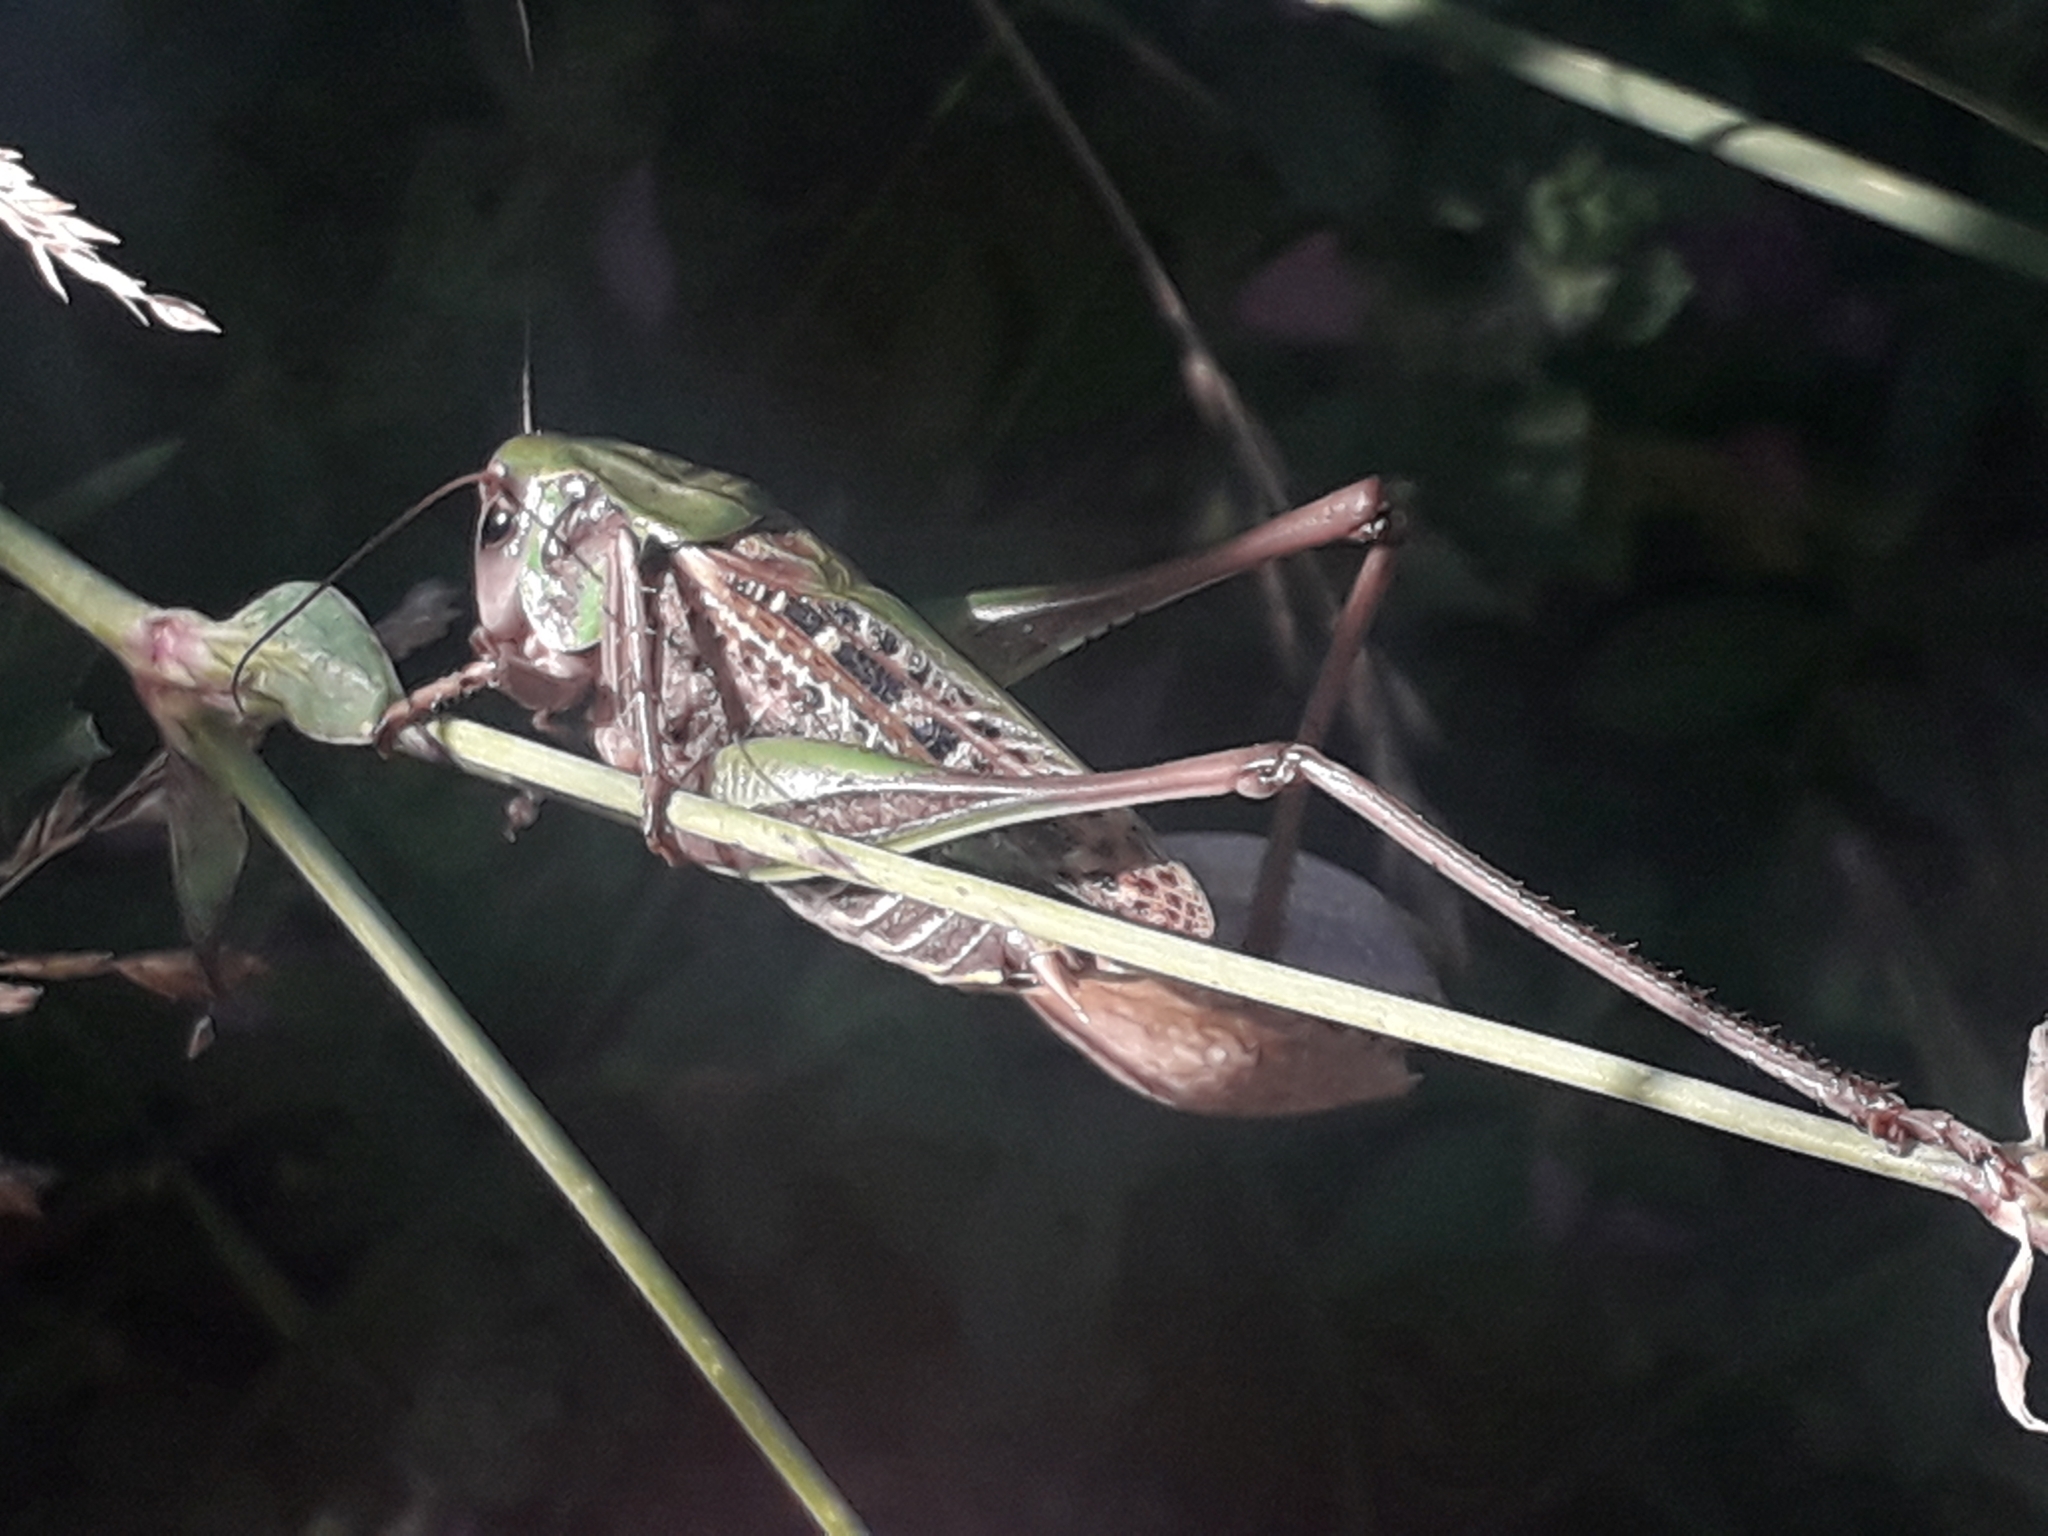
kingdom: Animalia
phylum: Arthropoda
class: Insecta
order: Orthoptera
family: Tettigoniidae
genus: Decticus
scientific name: Decticus verrucivorus
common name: Wart-biter
